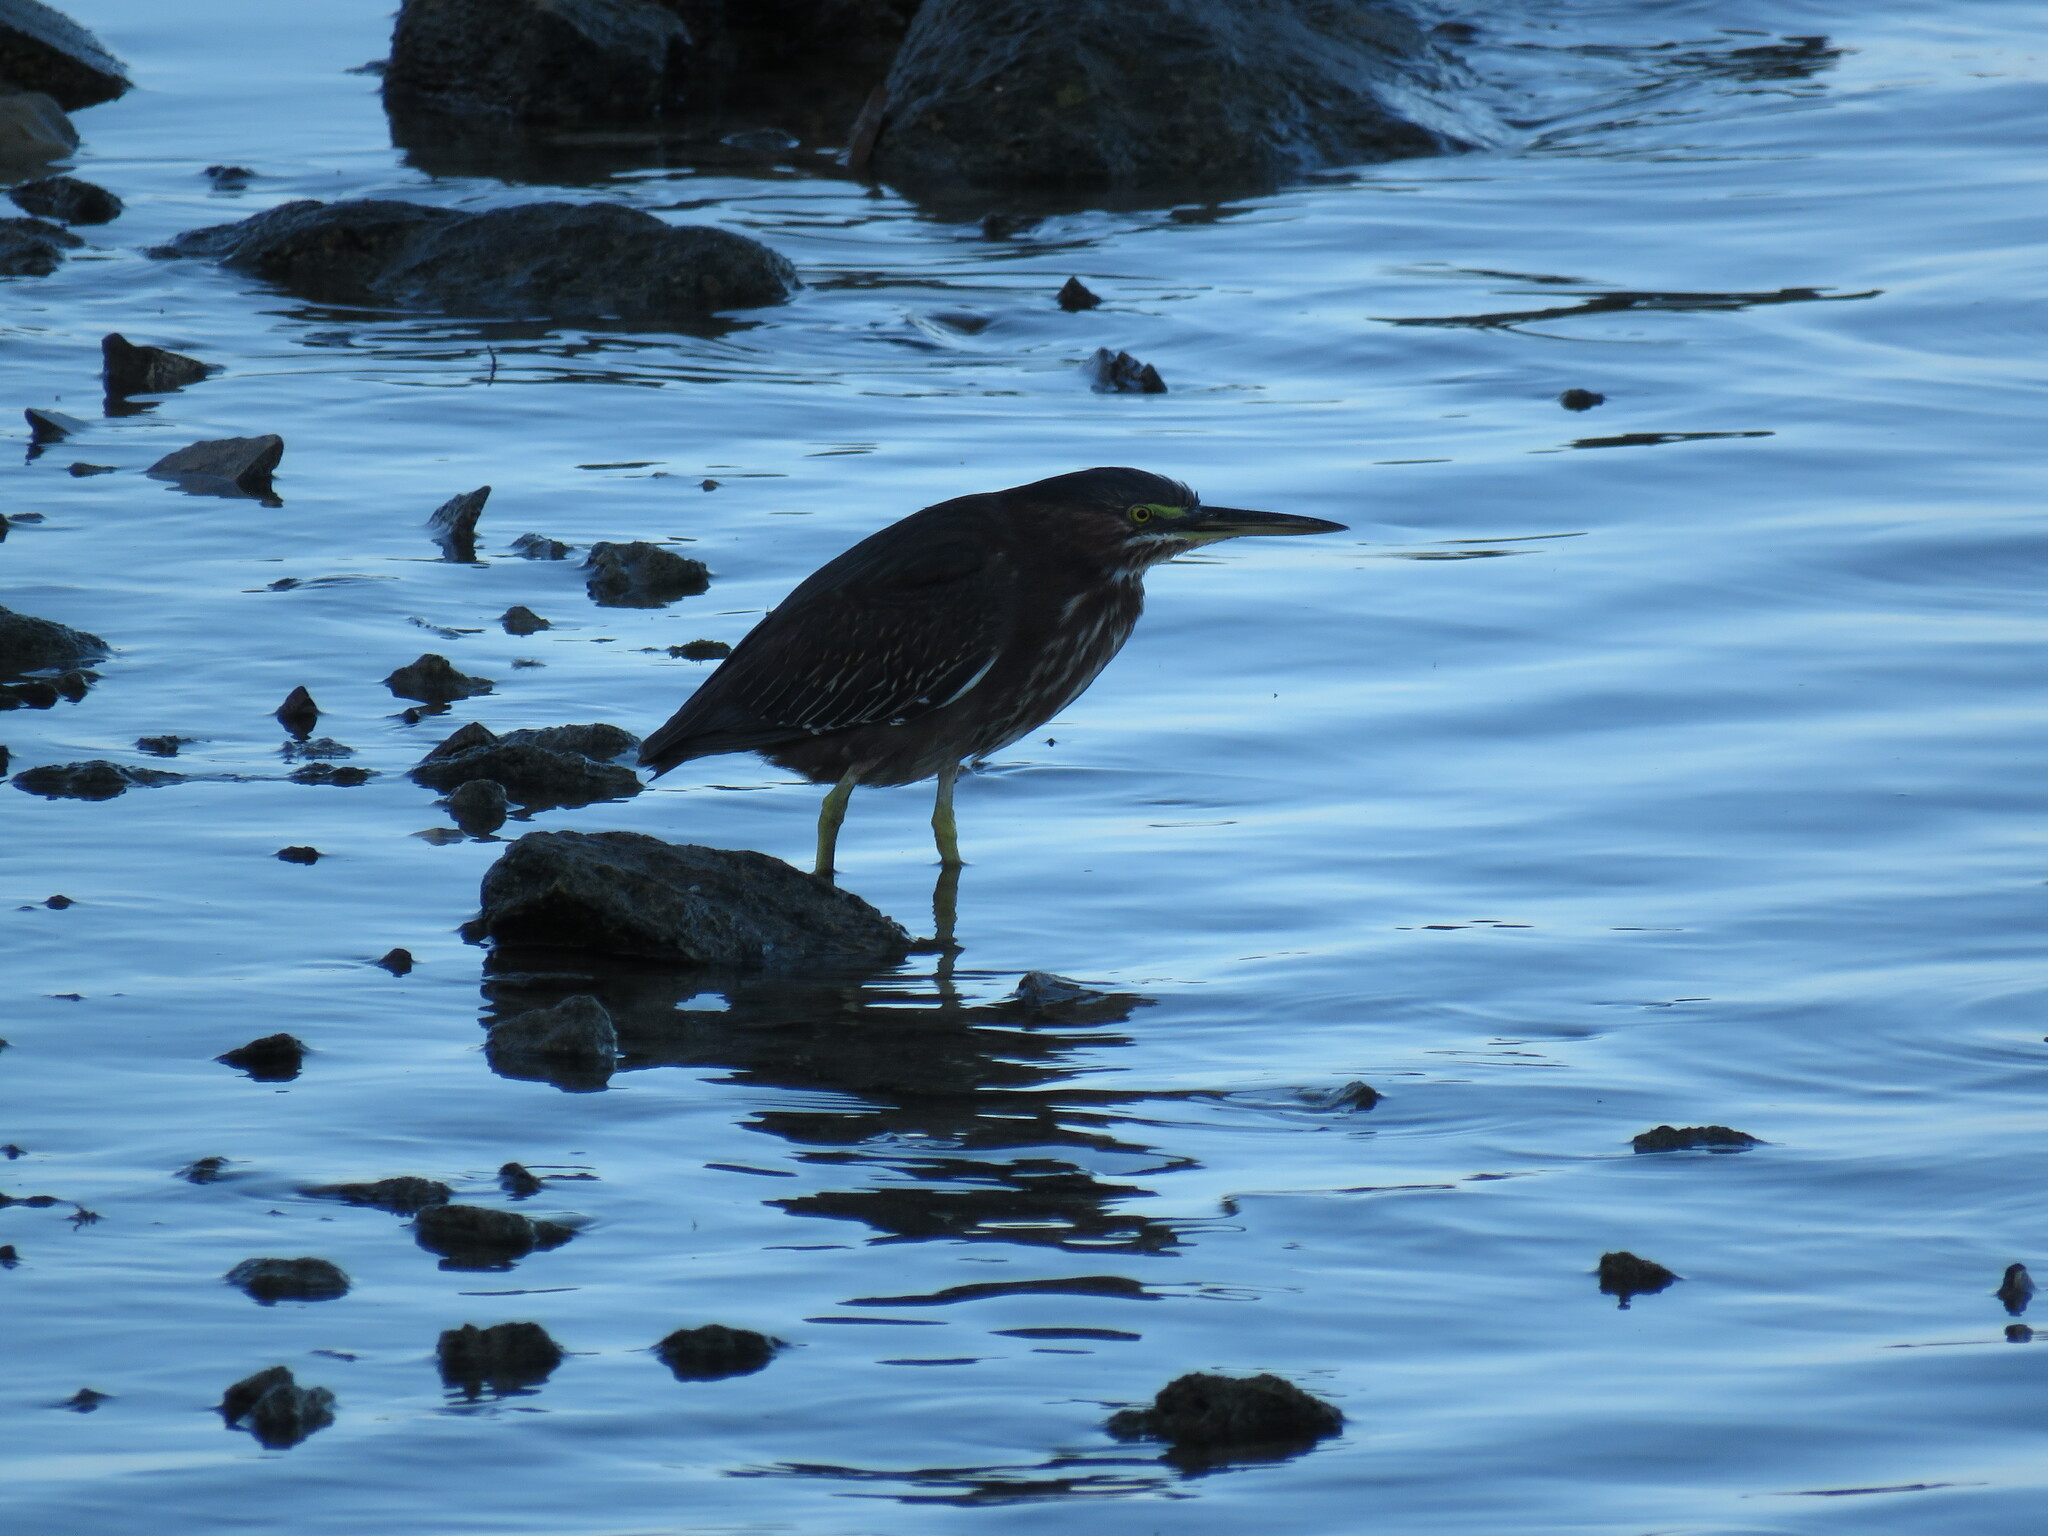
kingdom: Animalia
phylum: Chordata
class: Aves
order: Pelecaniformes
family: Ardeidae
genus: Butorides
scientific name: Butorides virescens
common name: Green heron
